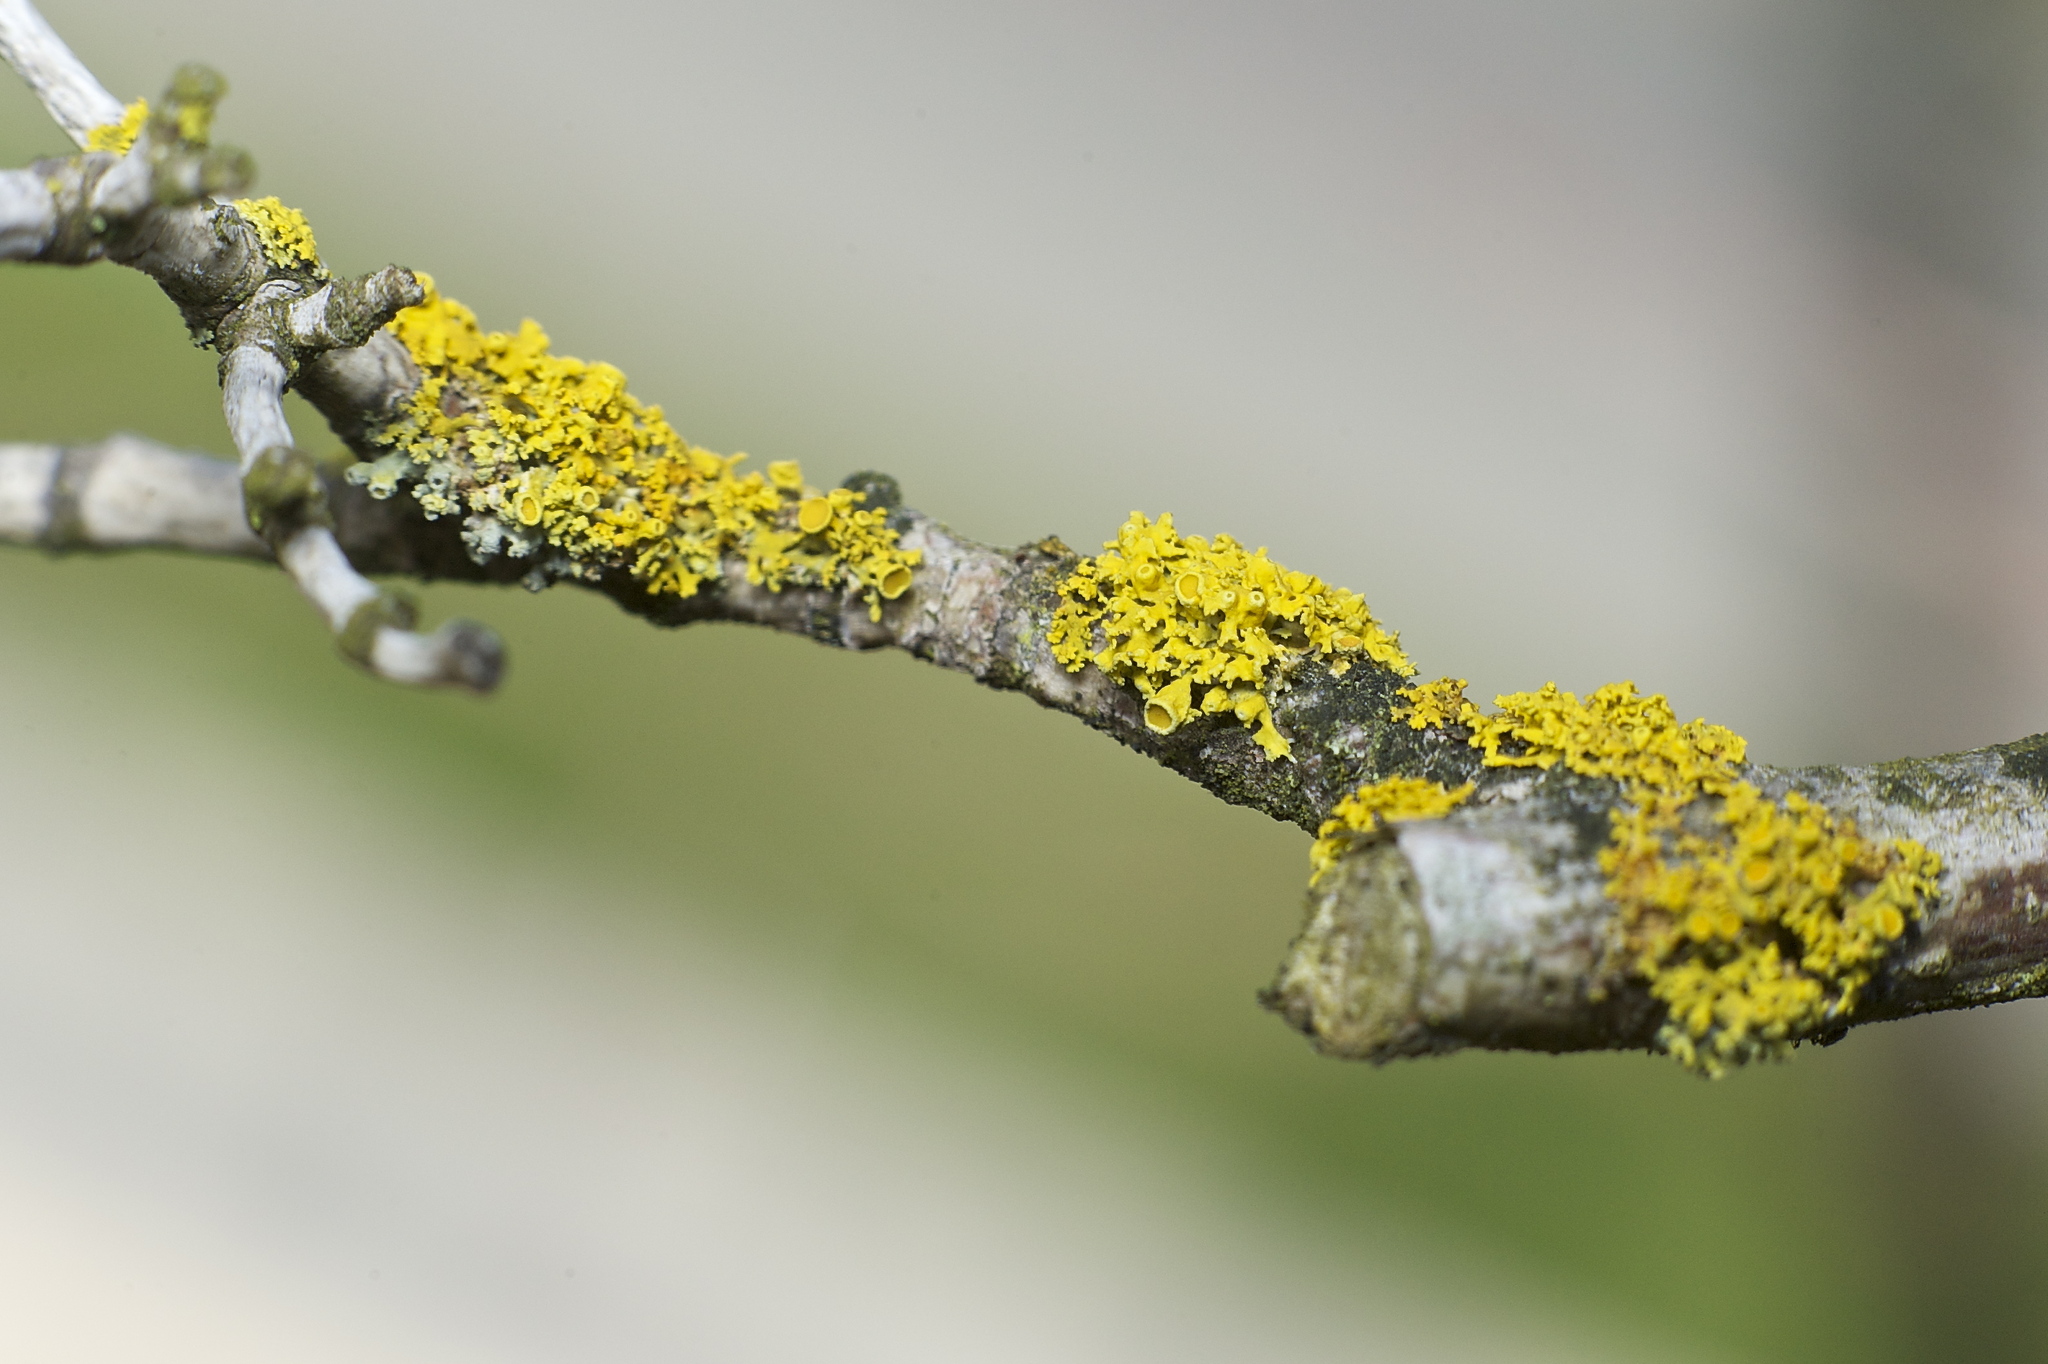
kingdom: Fungi
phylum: Ascomycota
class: Lecanoromycetes
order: Teloschistales
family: Teloschistaceae
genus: Polycauliona
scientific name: Polycauliona polycarpa
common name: Pin-cushion sunburst lichen
